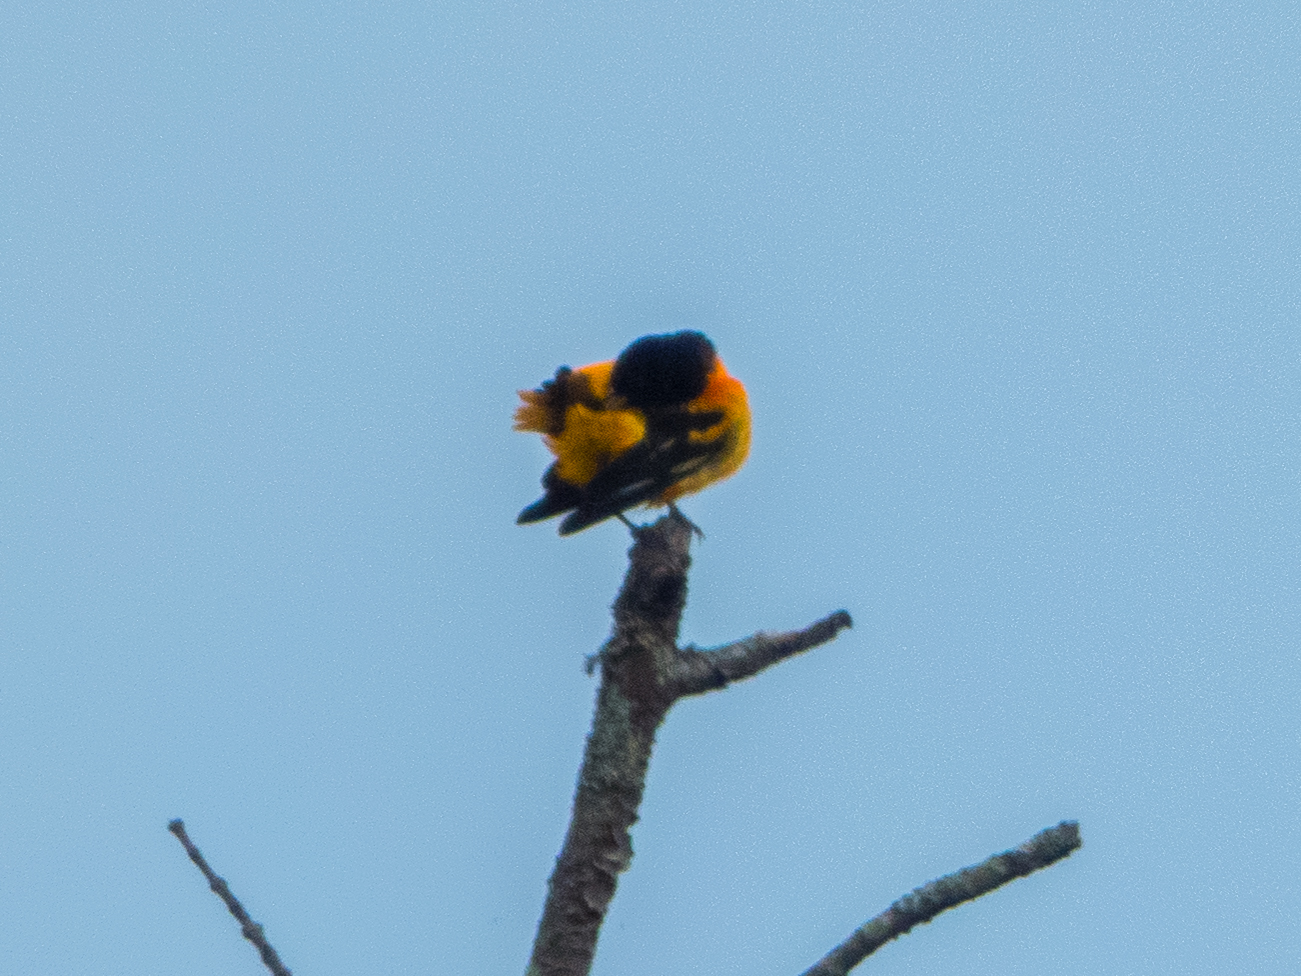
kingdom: Animalia
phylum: Chordata
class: Aves
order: Passeriformes
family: Icteridae
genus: Icterus
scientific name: Icterus galbula
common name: Baltimore oriole
